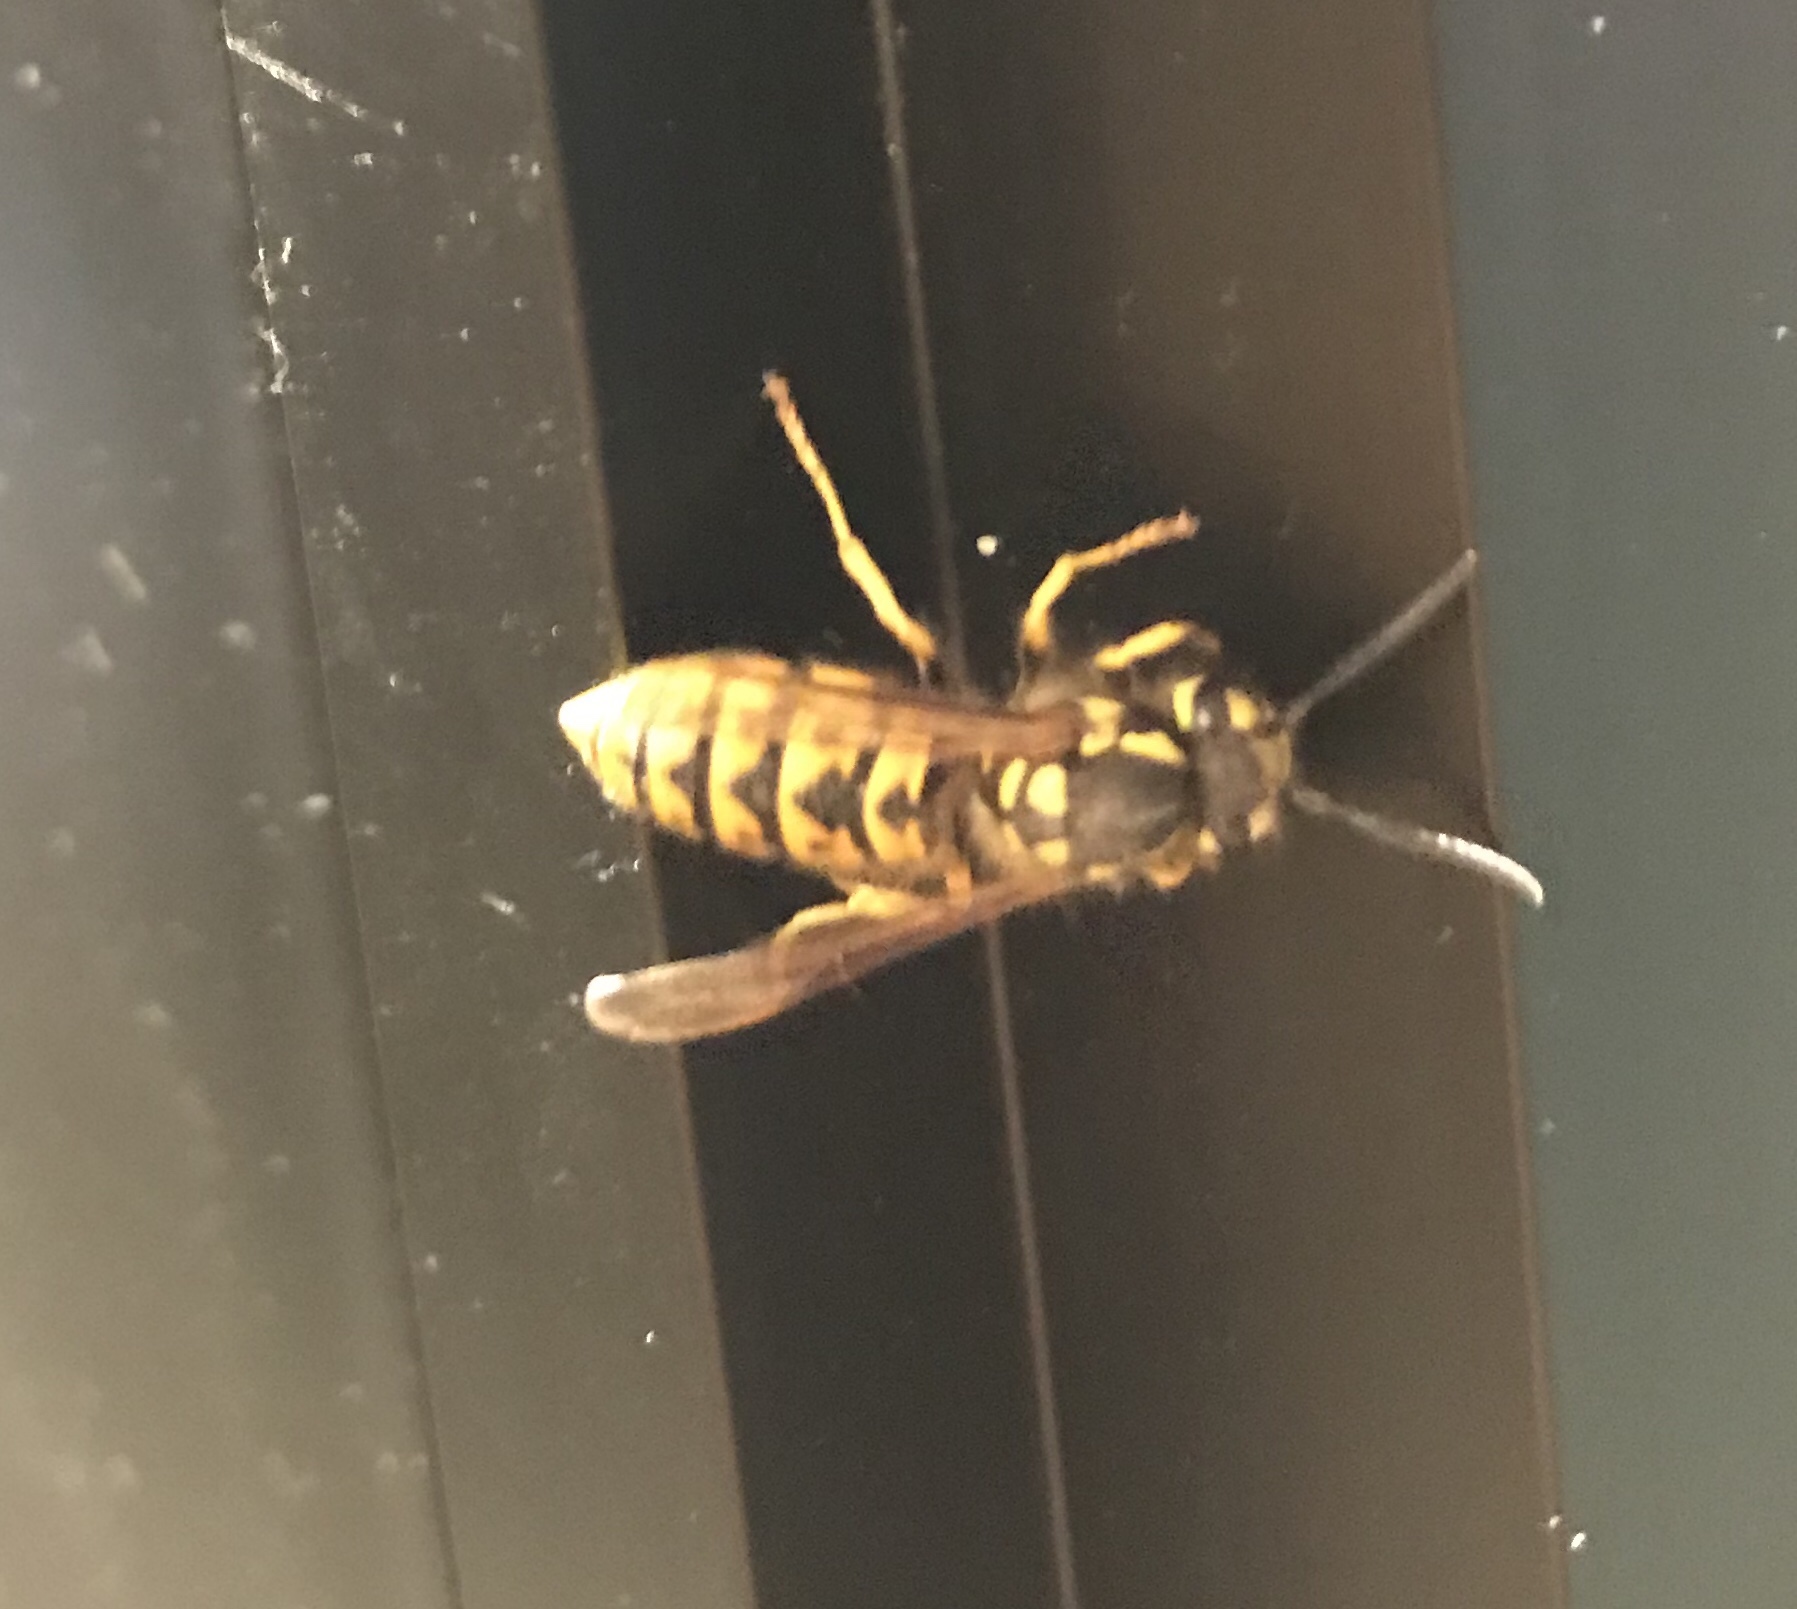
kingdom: Animalia
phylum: Arthropoda
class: Insecta
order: Hymenoptera
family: Vespidae
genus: Vespula
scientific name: Vespula germanica
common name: German wasp
